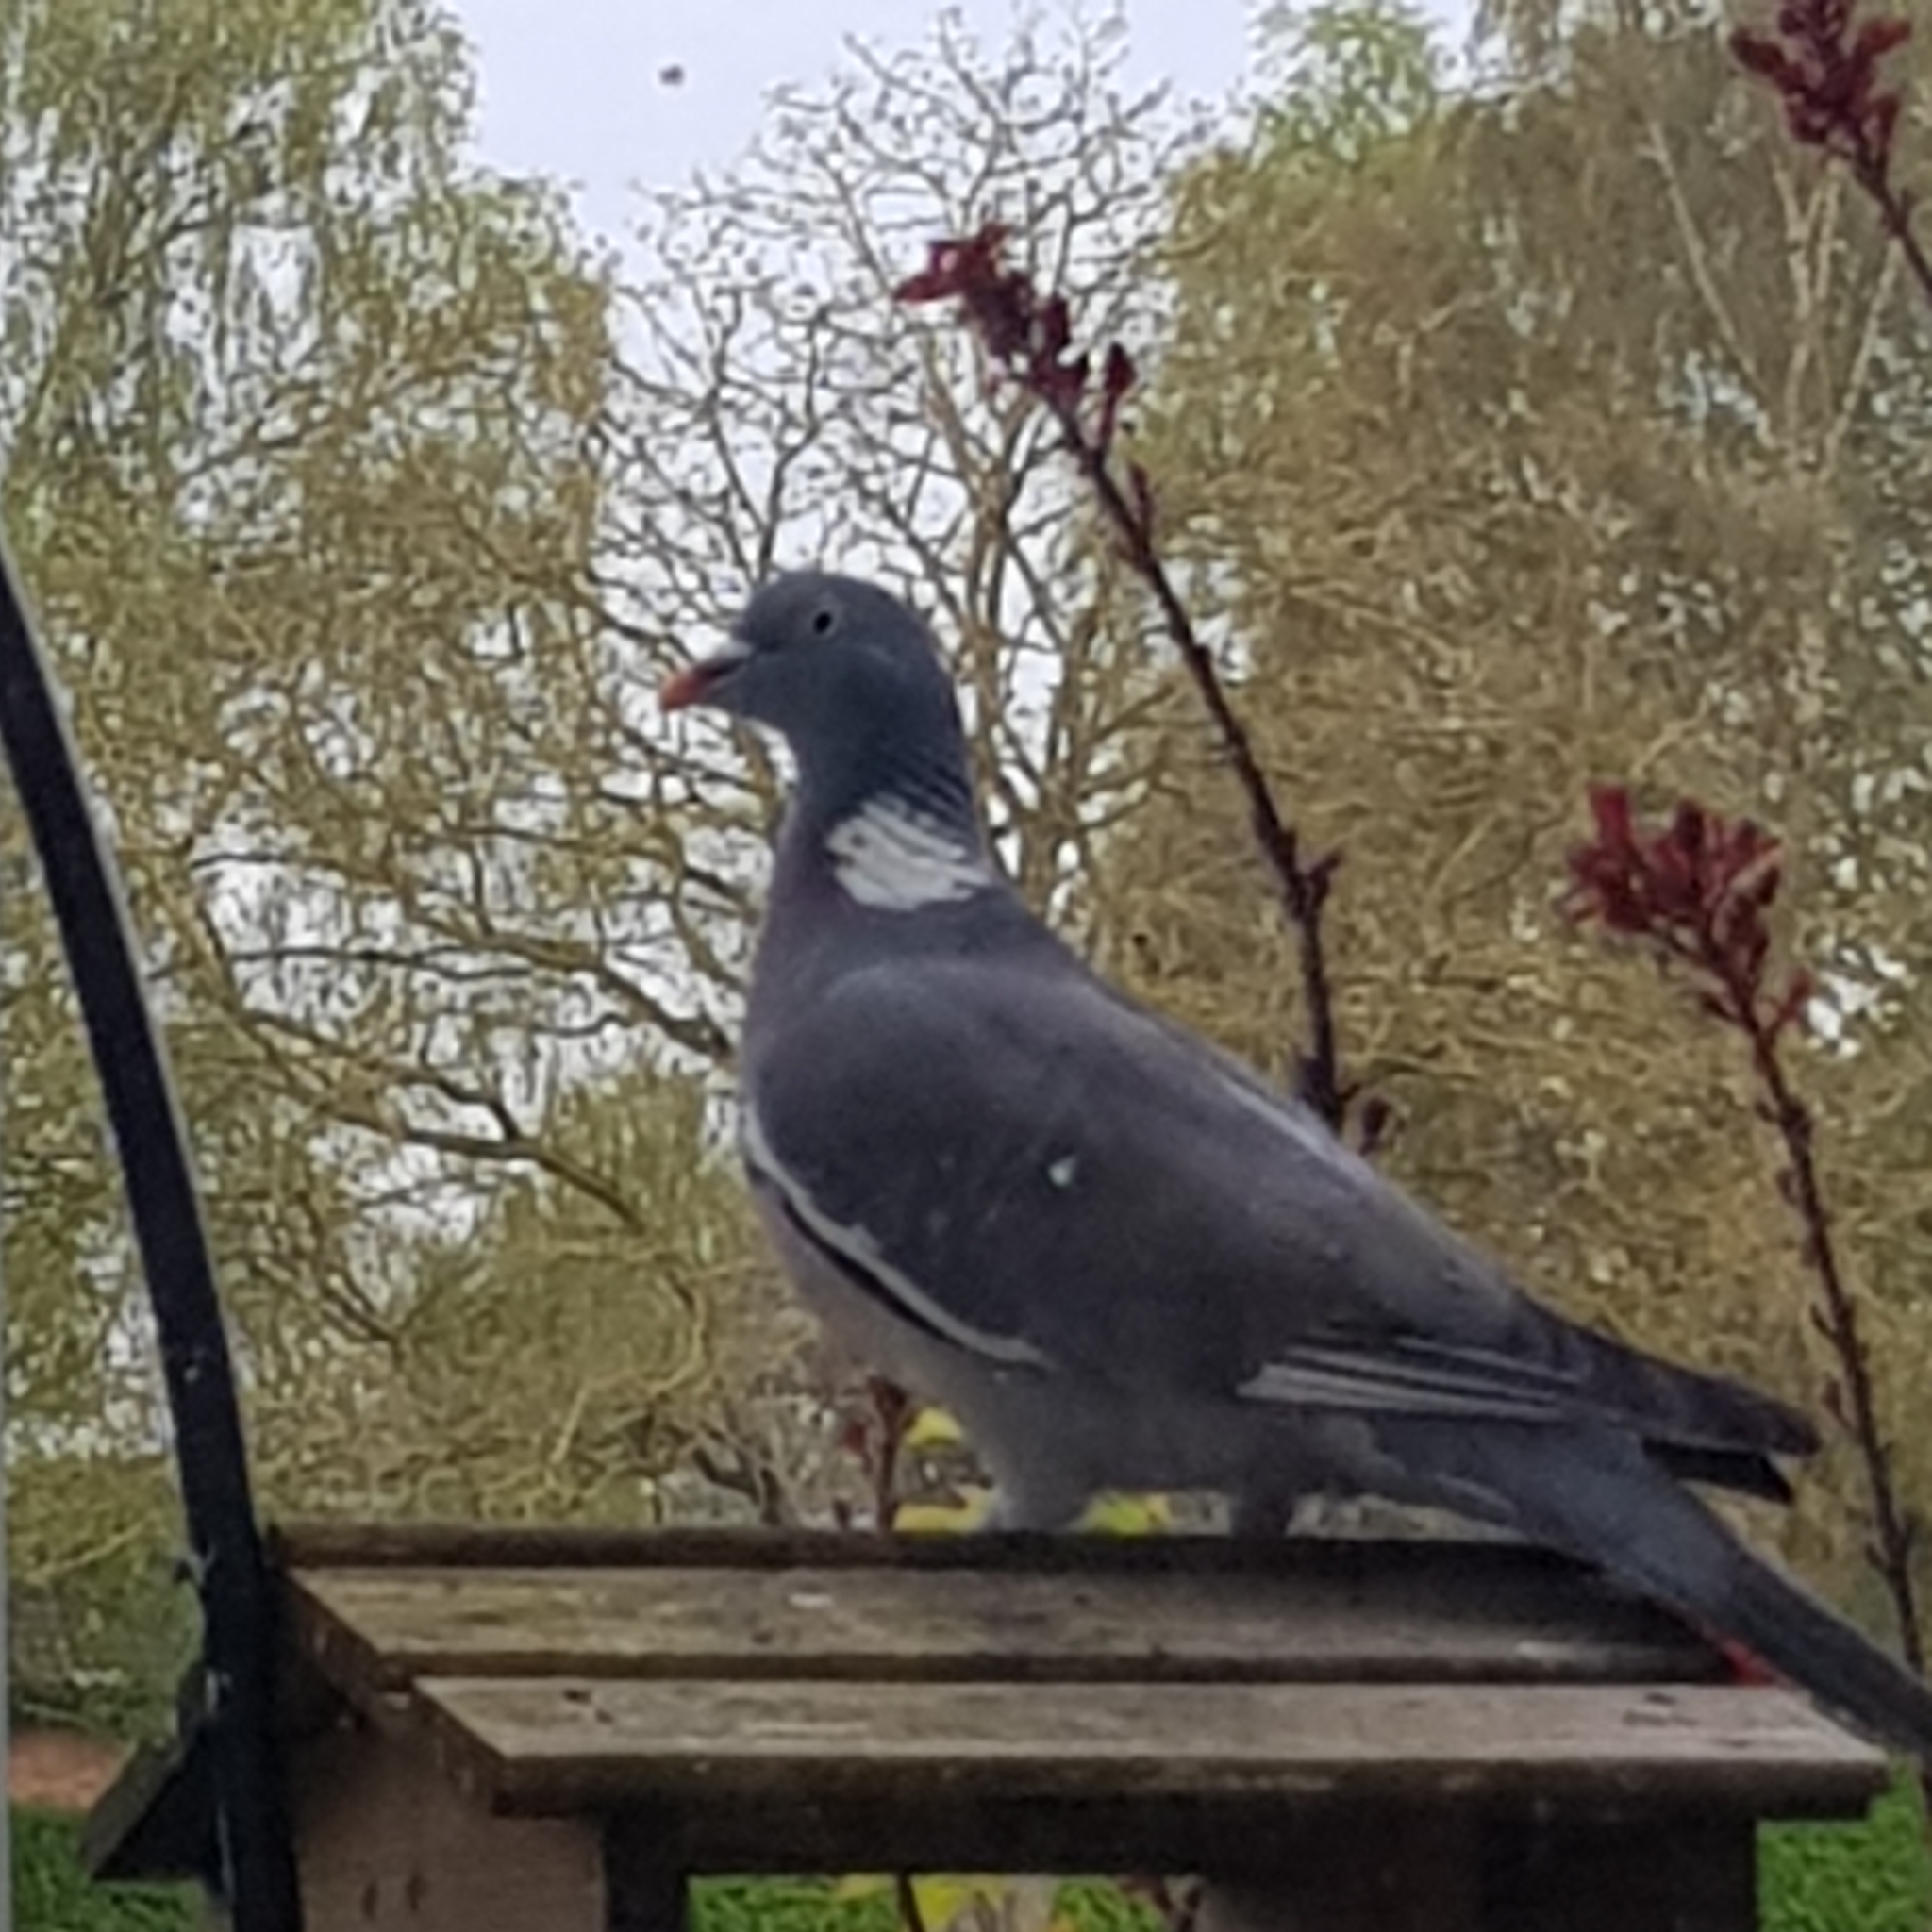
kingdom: Animalia
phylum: Chordata
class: Aves
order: Columbiformes
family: Columbidae
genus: Columba
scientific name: Columba palumbus
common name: Common wood pigeon
